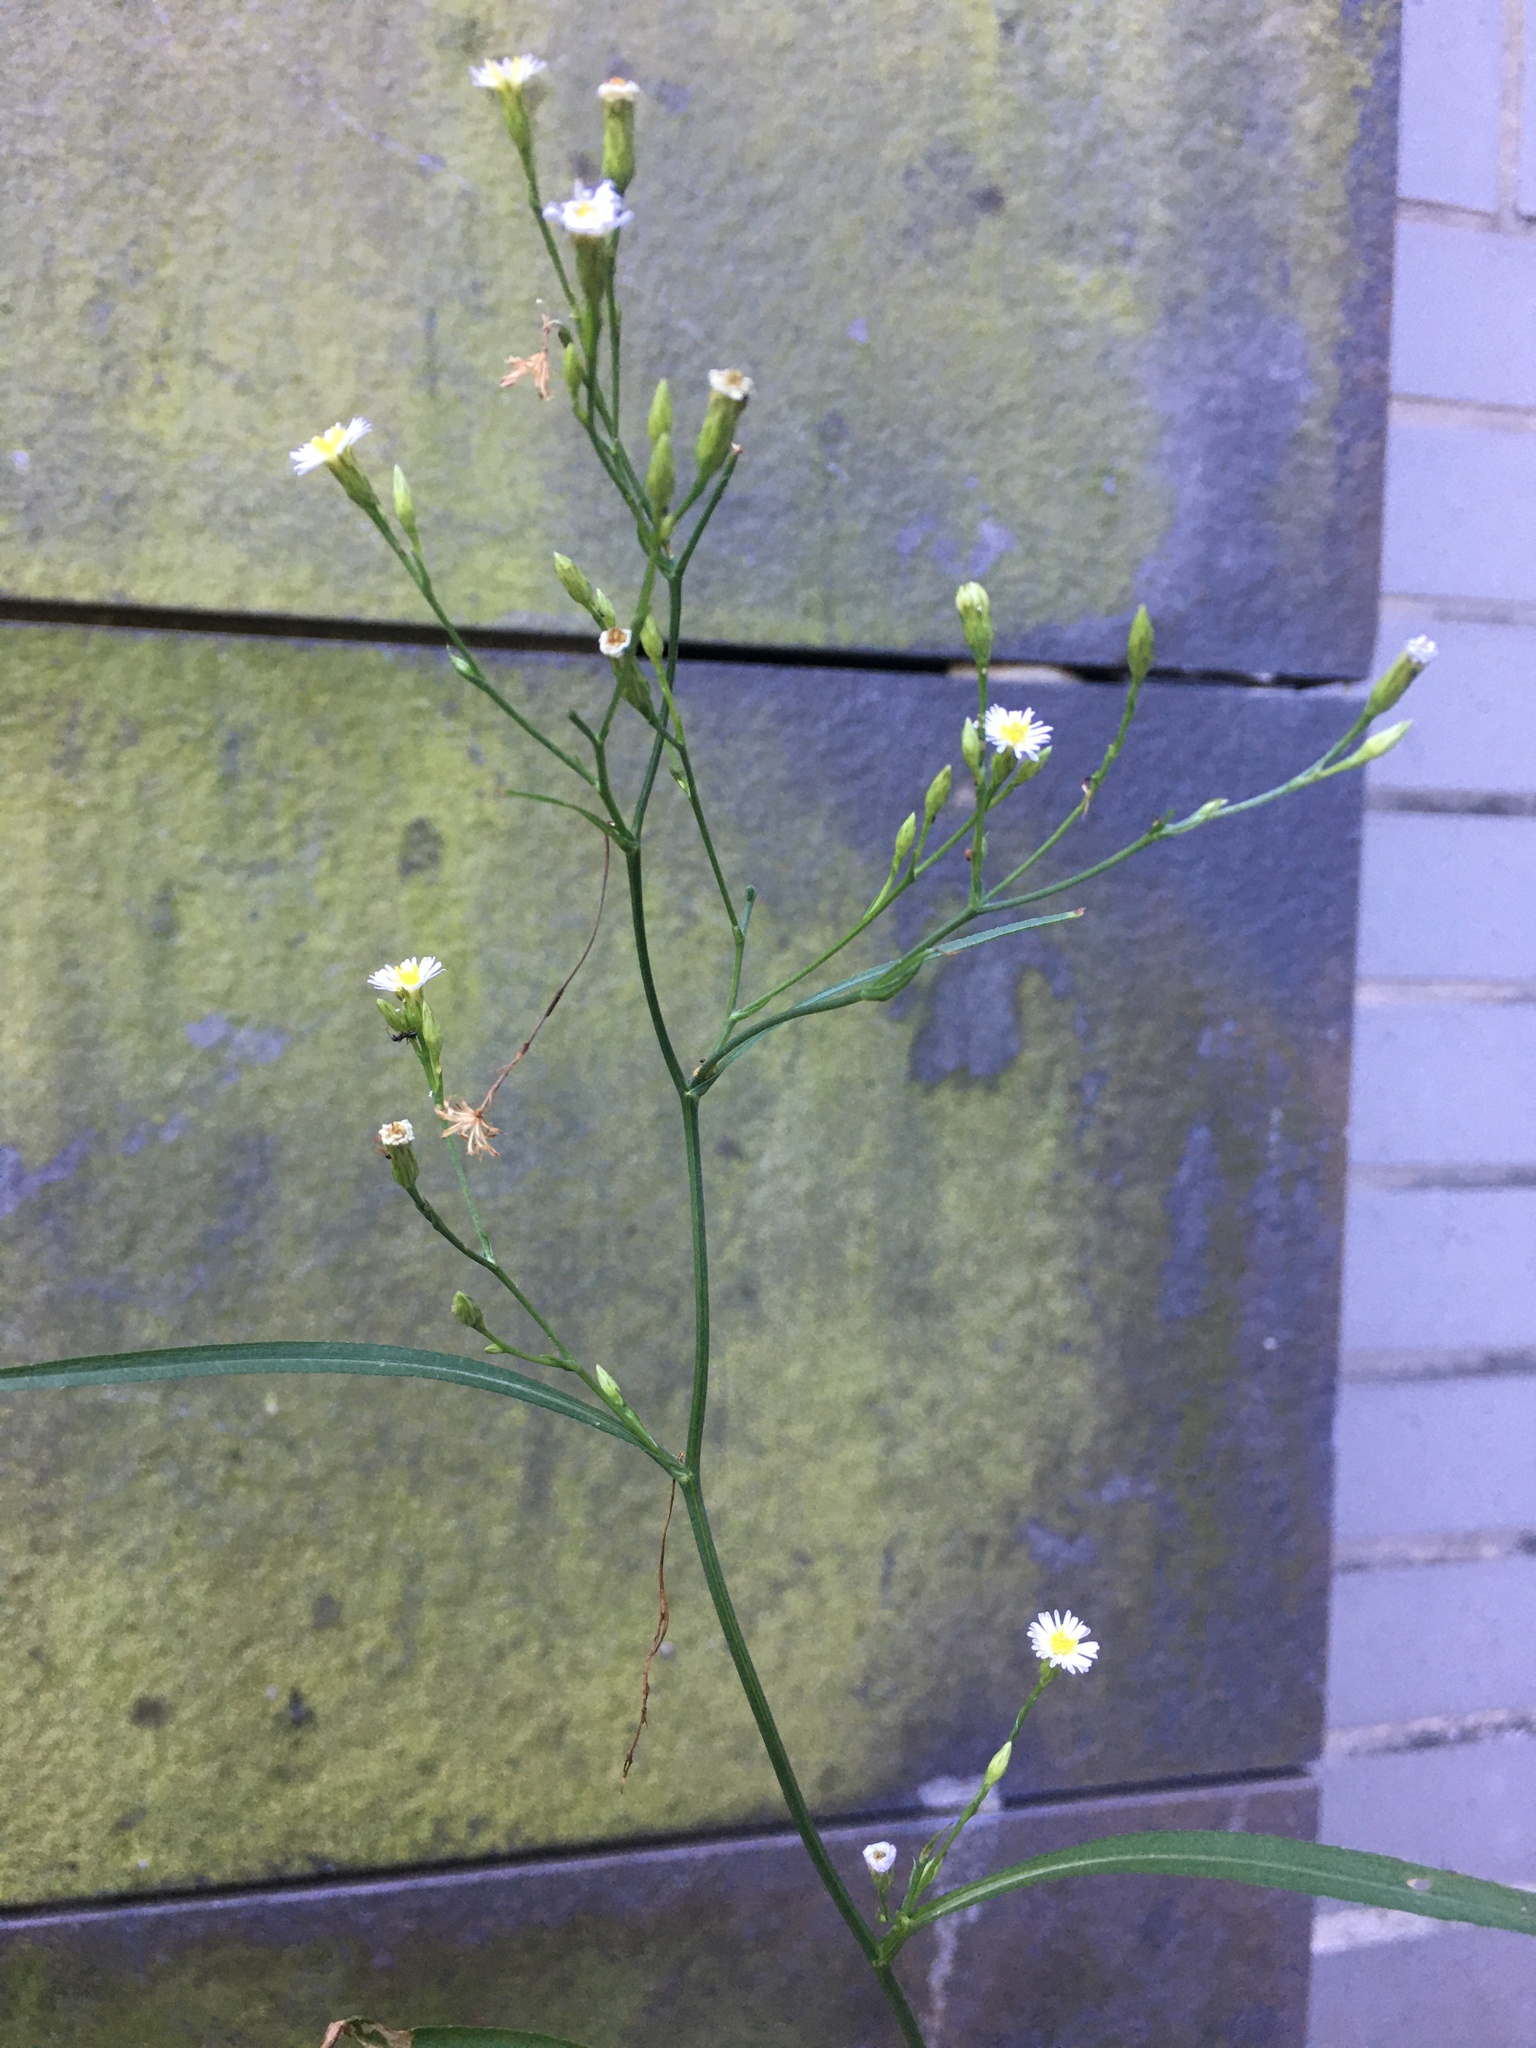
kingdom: Plantae
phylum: Tracheophyta
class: Magnoliopsida
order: Asterales
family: Asteraceae
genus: Symphyotrichum
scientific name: Symphyotrichum subulatum
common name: Annual saltmarsh aster
